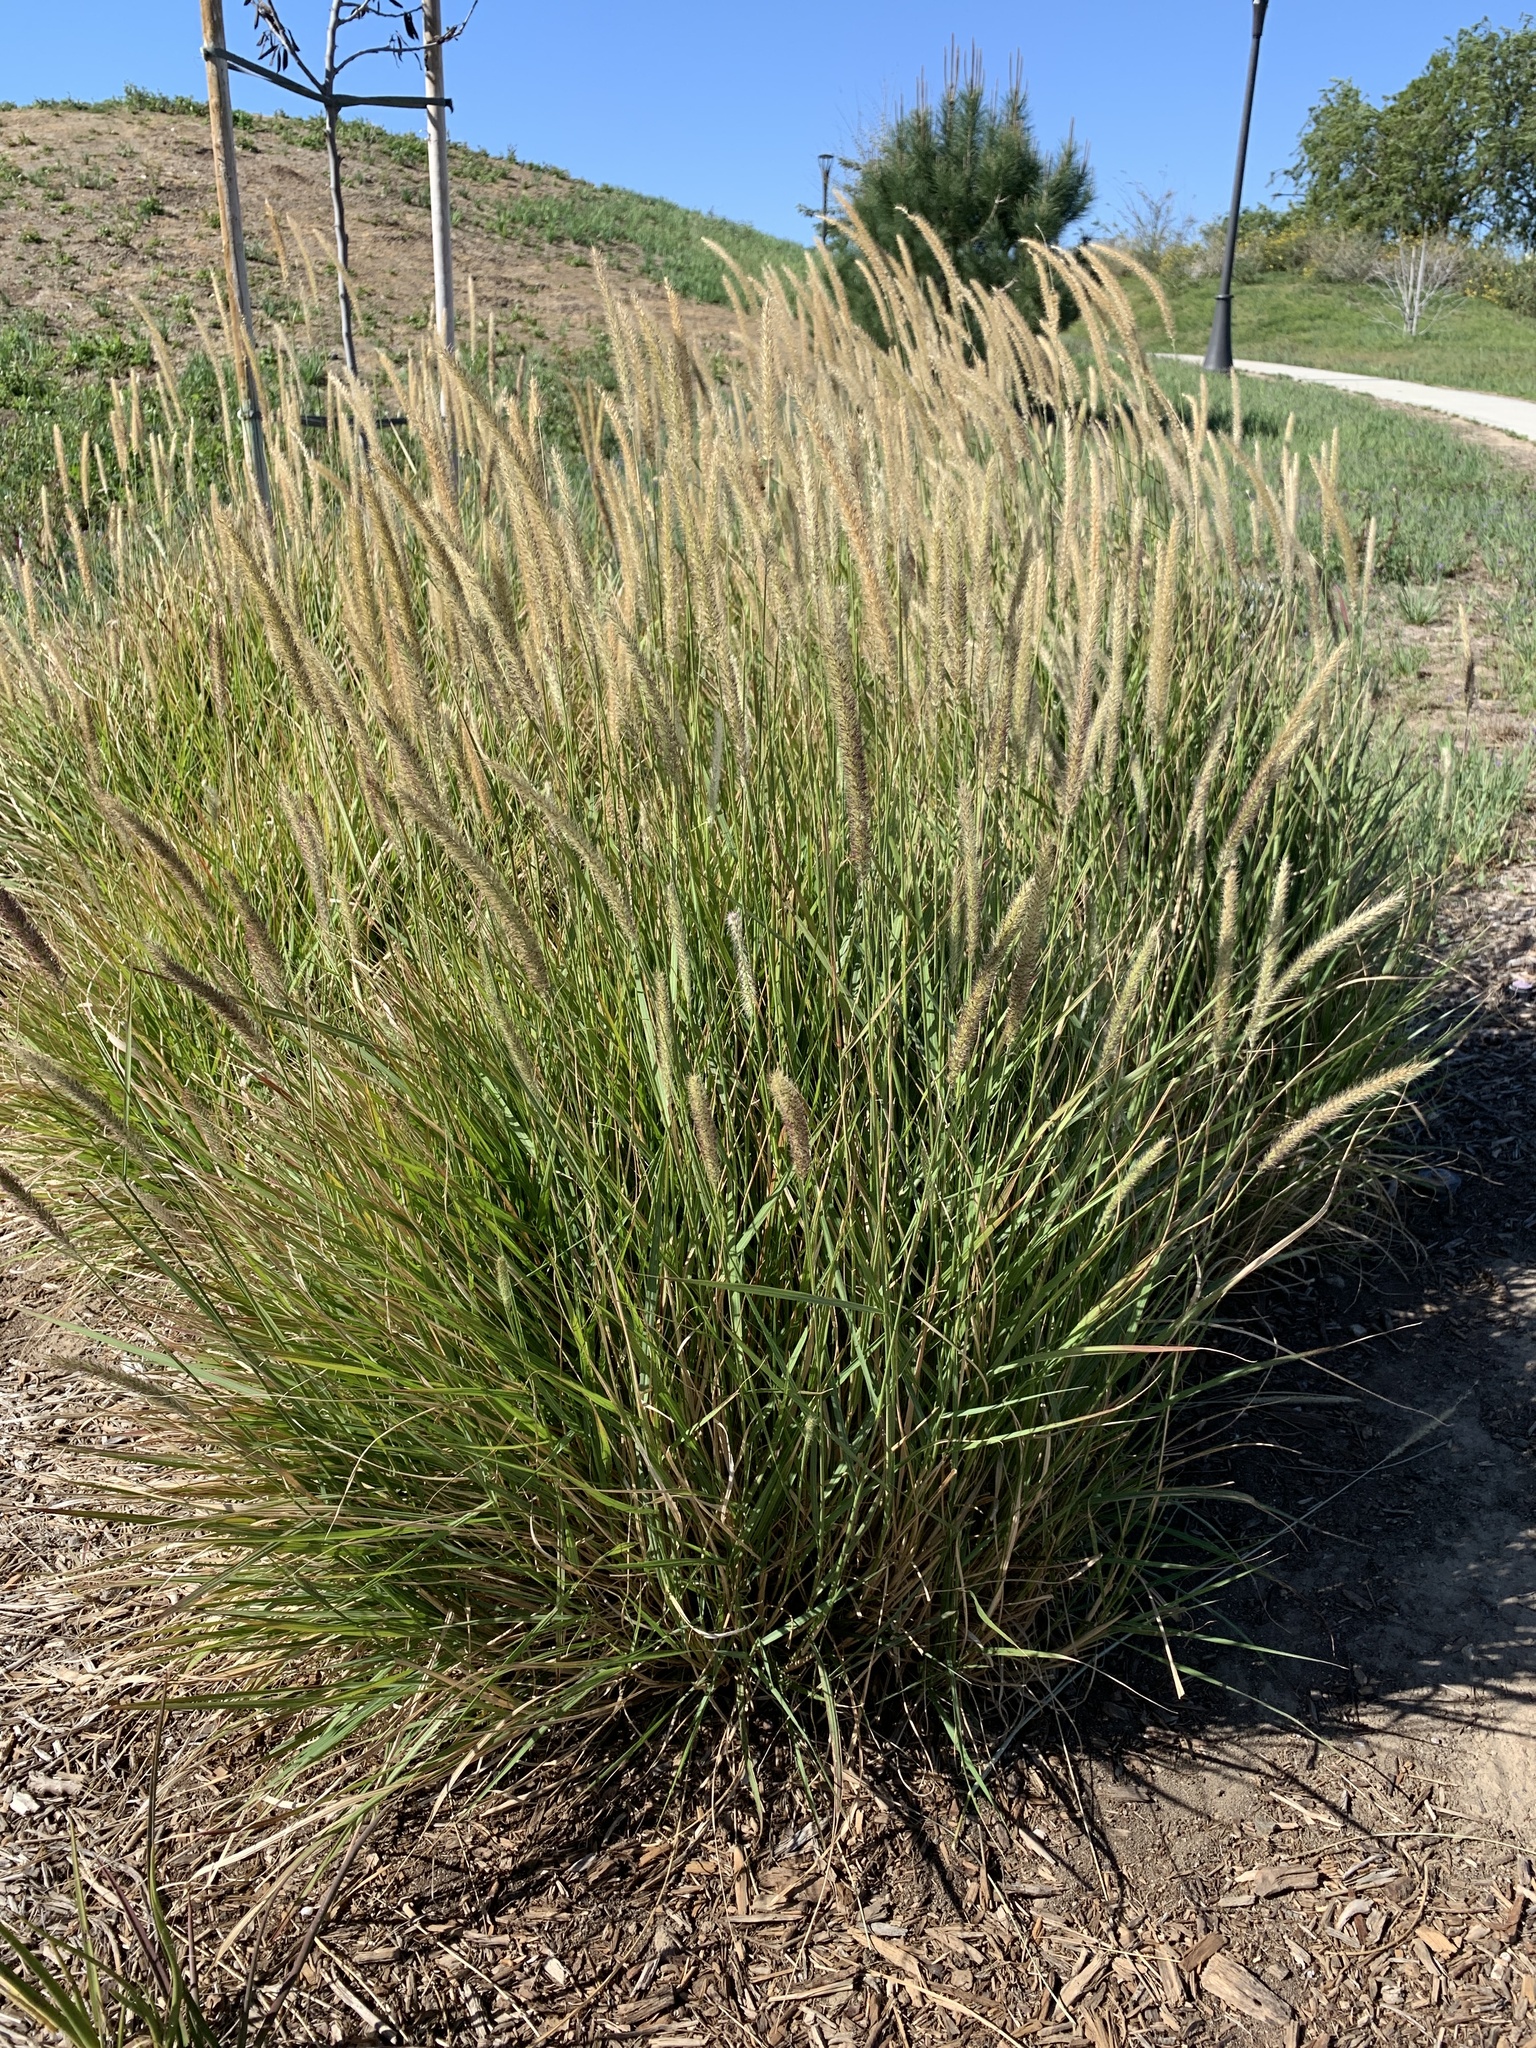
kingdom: Plantae
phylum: Tracheophyta
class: Liliopsida
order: Poales
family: Poaceae
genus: Cenchrus
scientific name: Cenchrus setaceus
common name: Crimson fountaingrass
